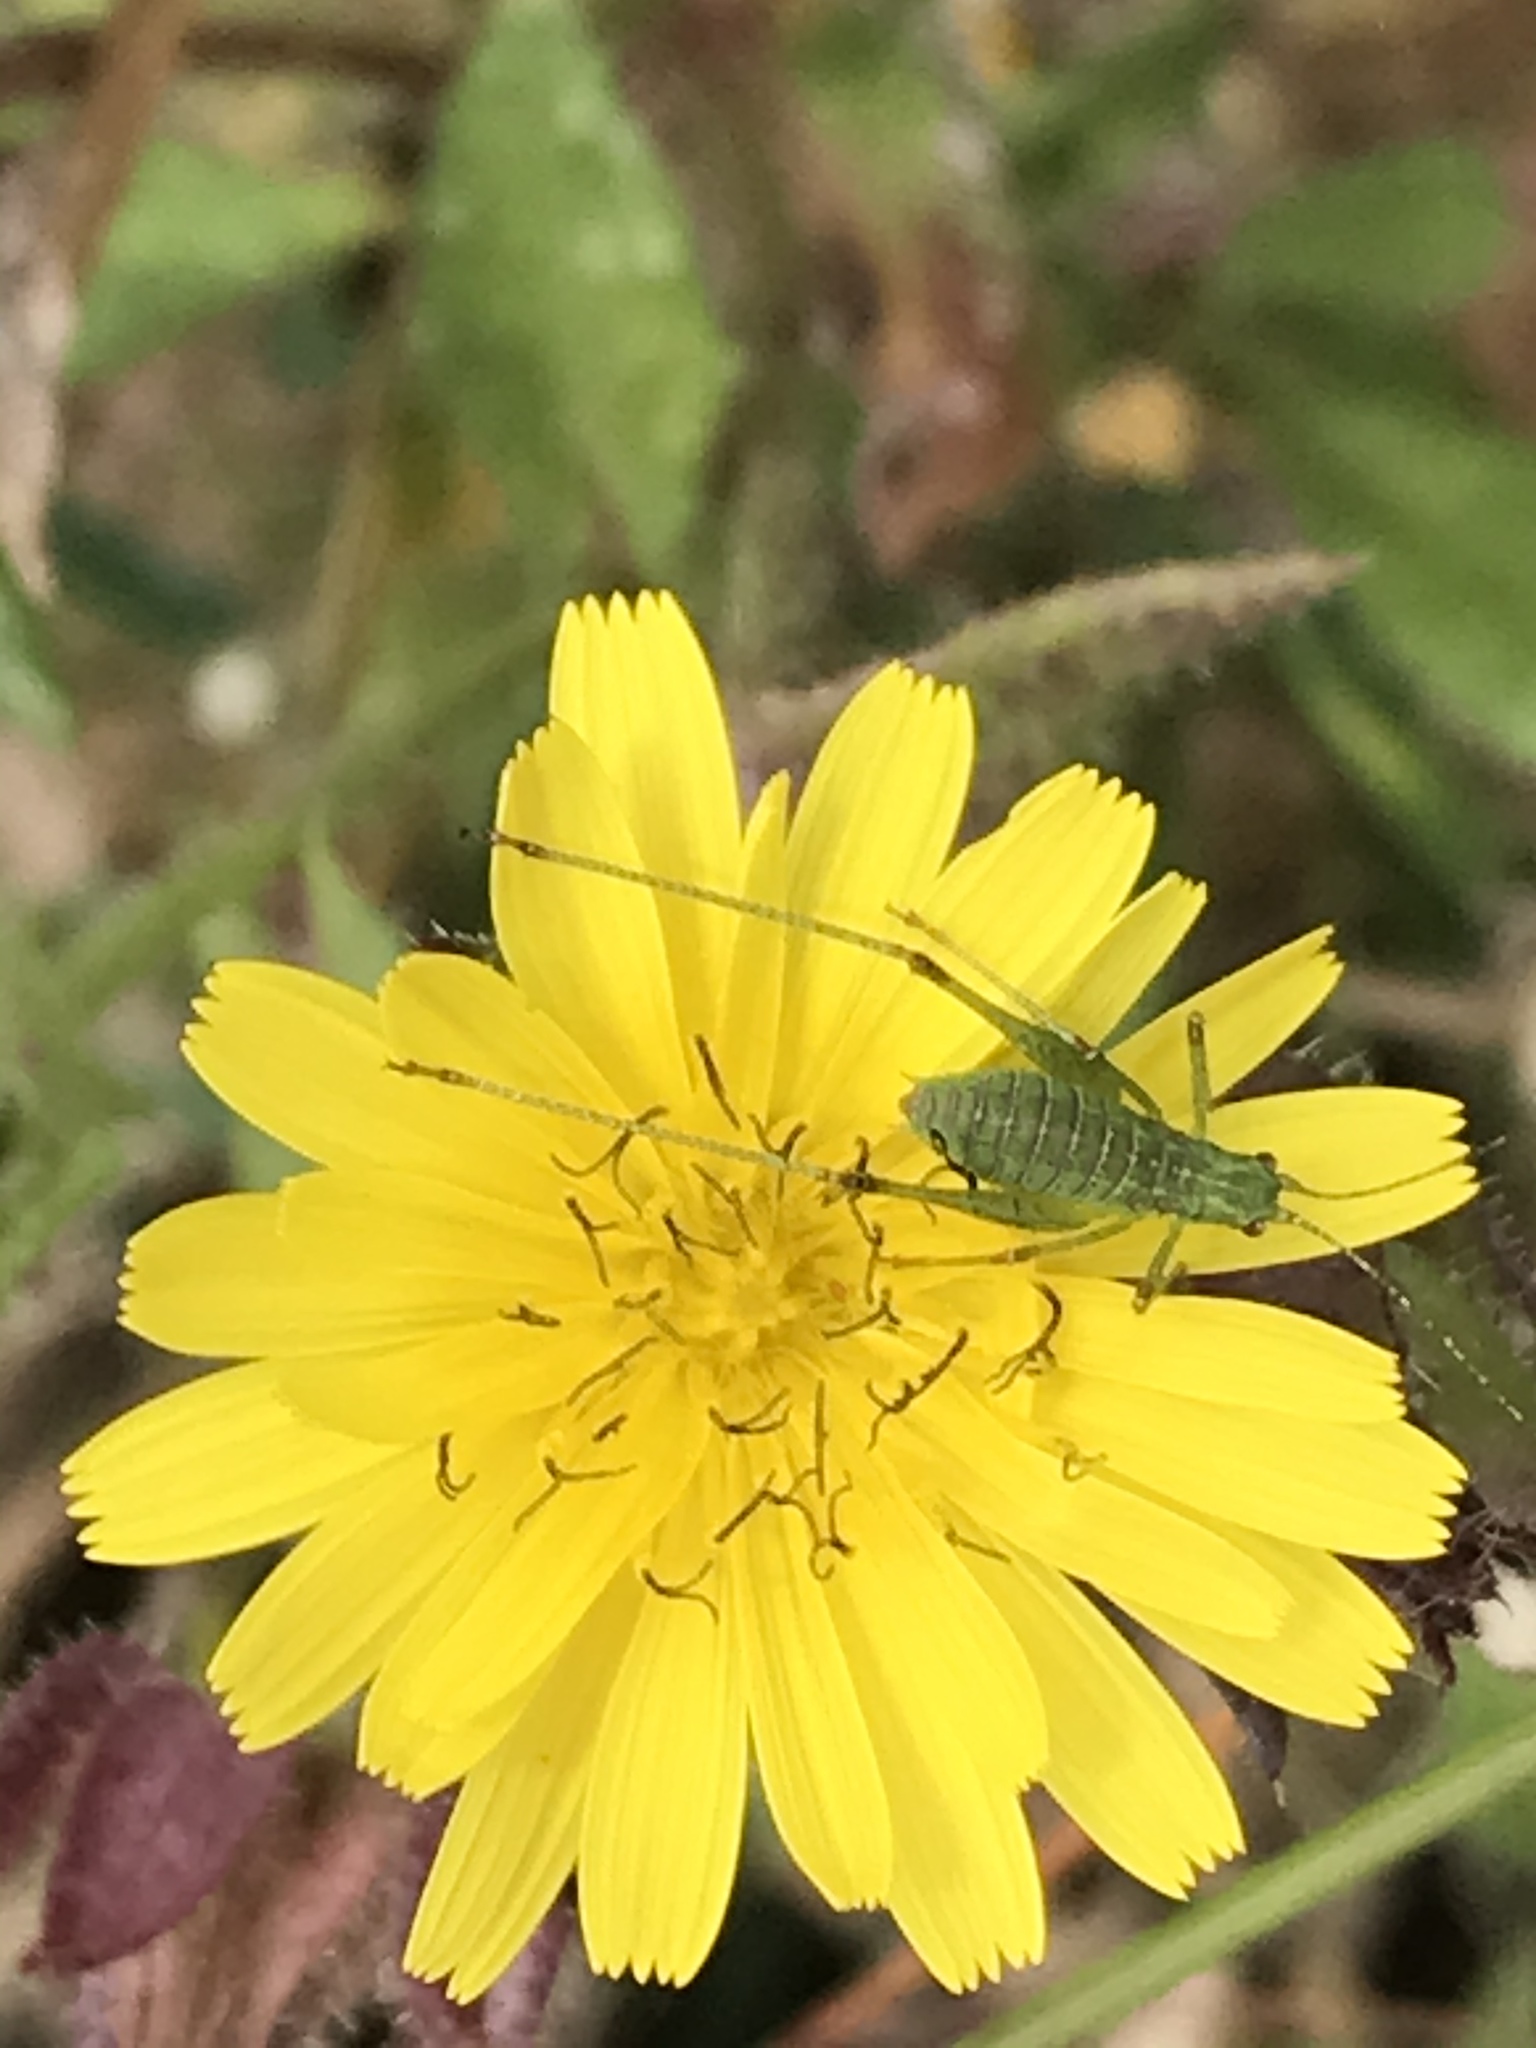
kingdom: Animalia
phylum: Arthropoda
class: Insecta
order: Orthoptera
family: Tettigoniidae
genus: Phaneroptera
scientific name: Phaneroptera nana
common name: Southern sickle bush-cricket
